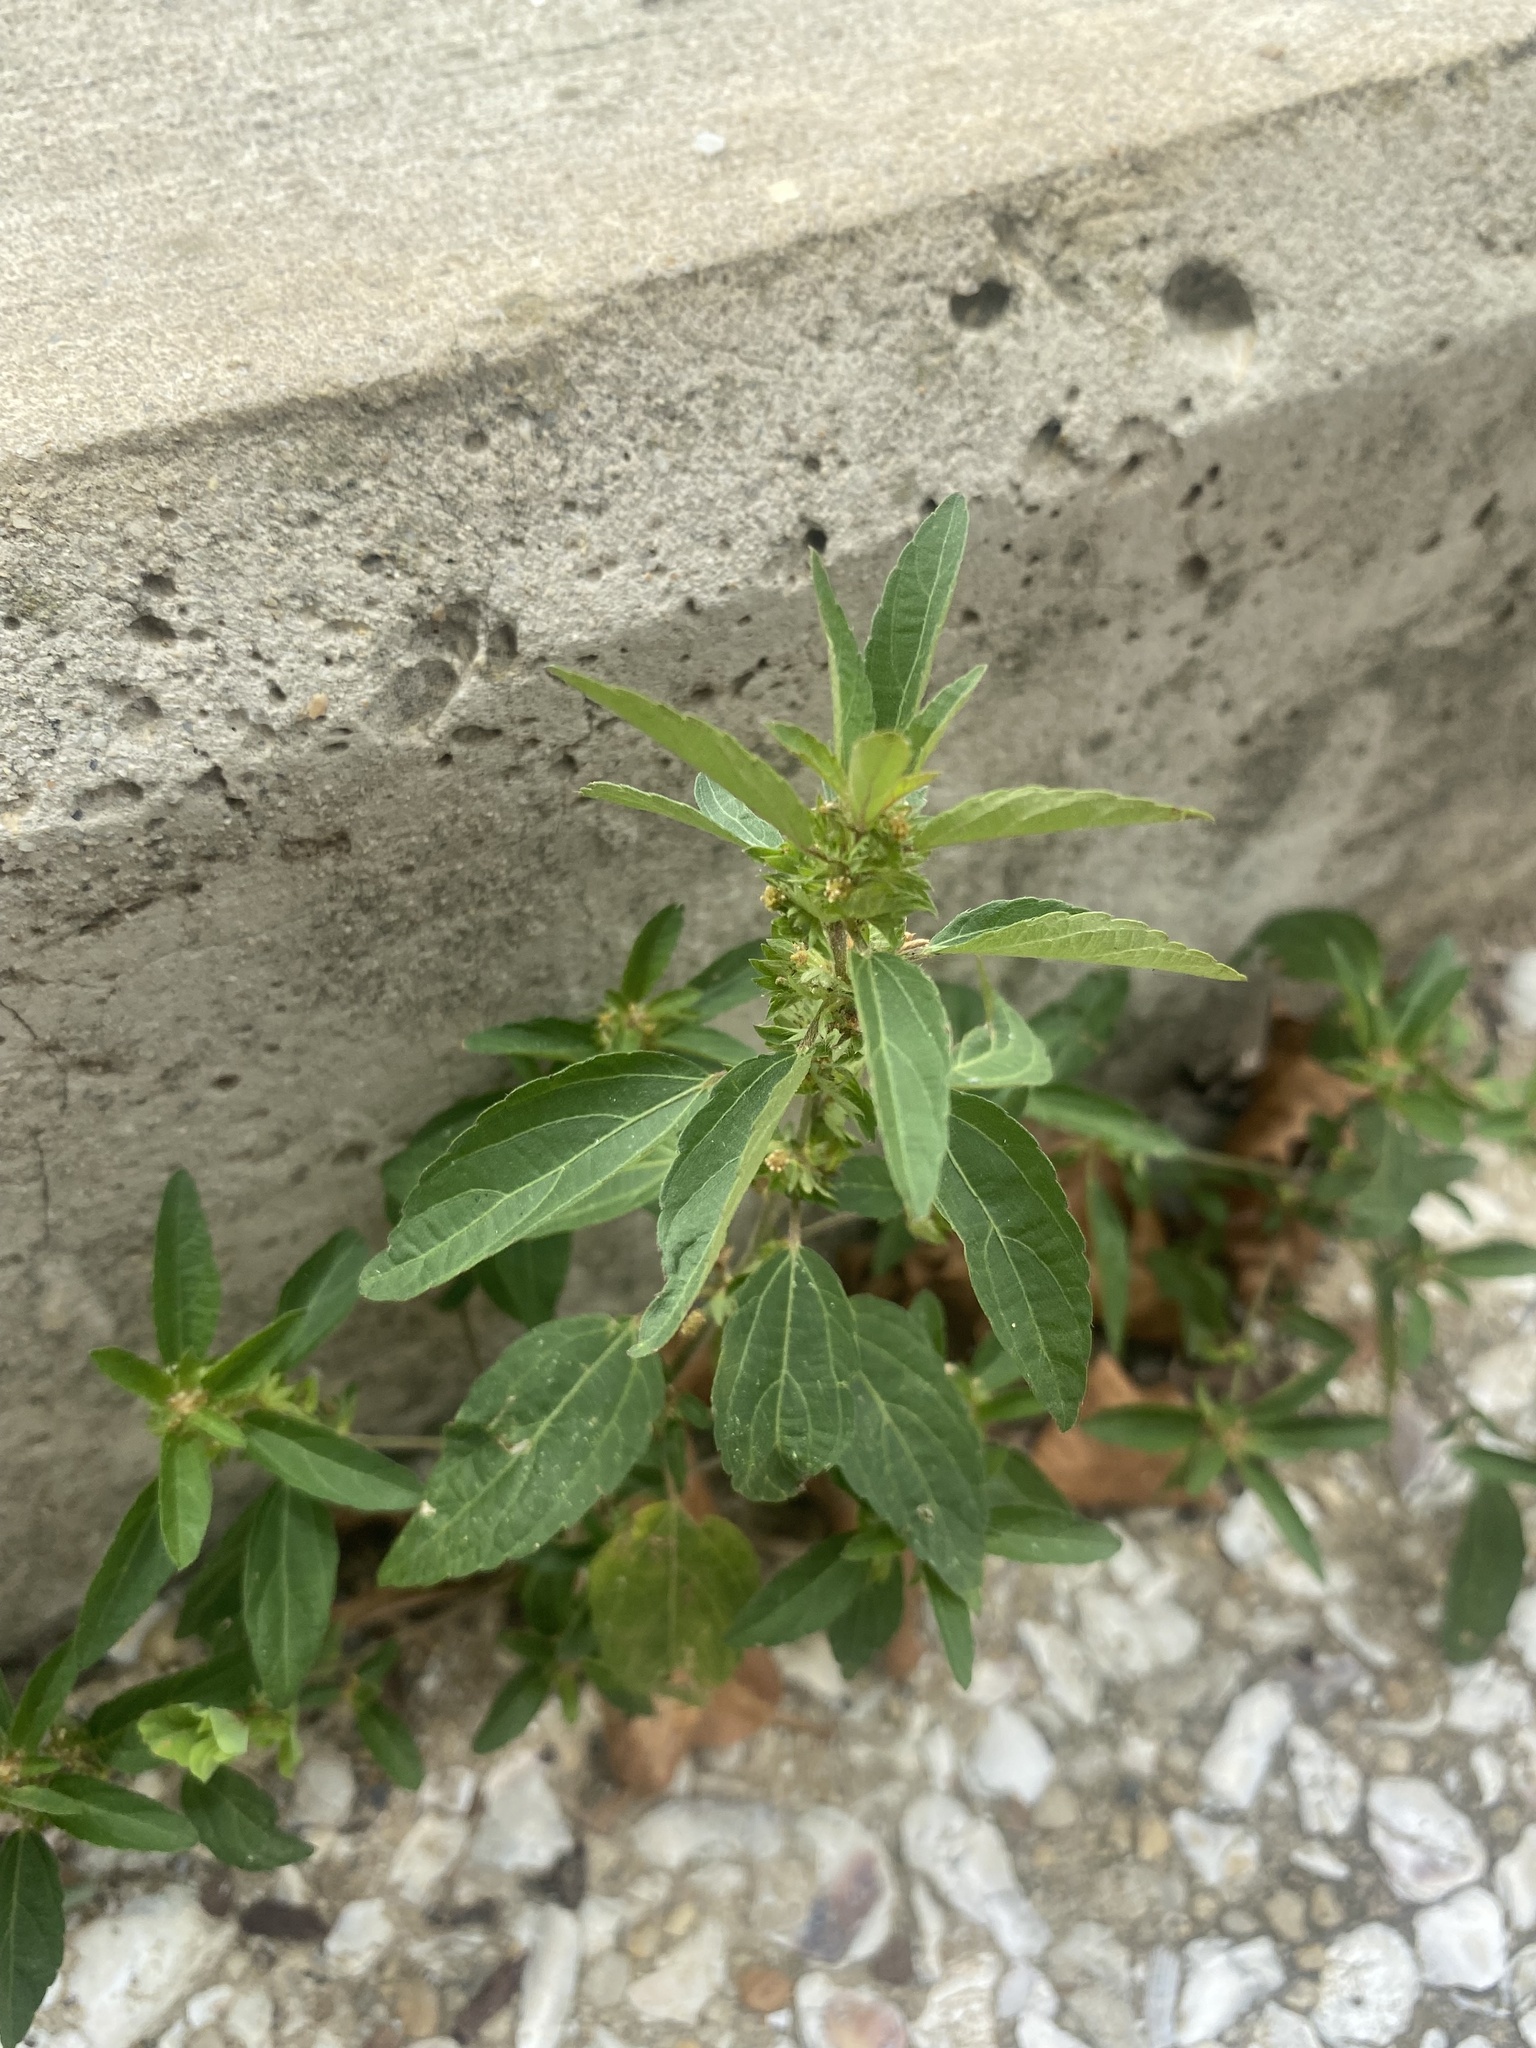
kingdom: Plantae
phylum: Tracheophyta
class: Magnoliopsida
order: Malpighiales
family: Euphorbiaceae
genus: Acalypha
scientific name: Acalypha virginica
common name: Virginia copperleaf
